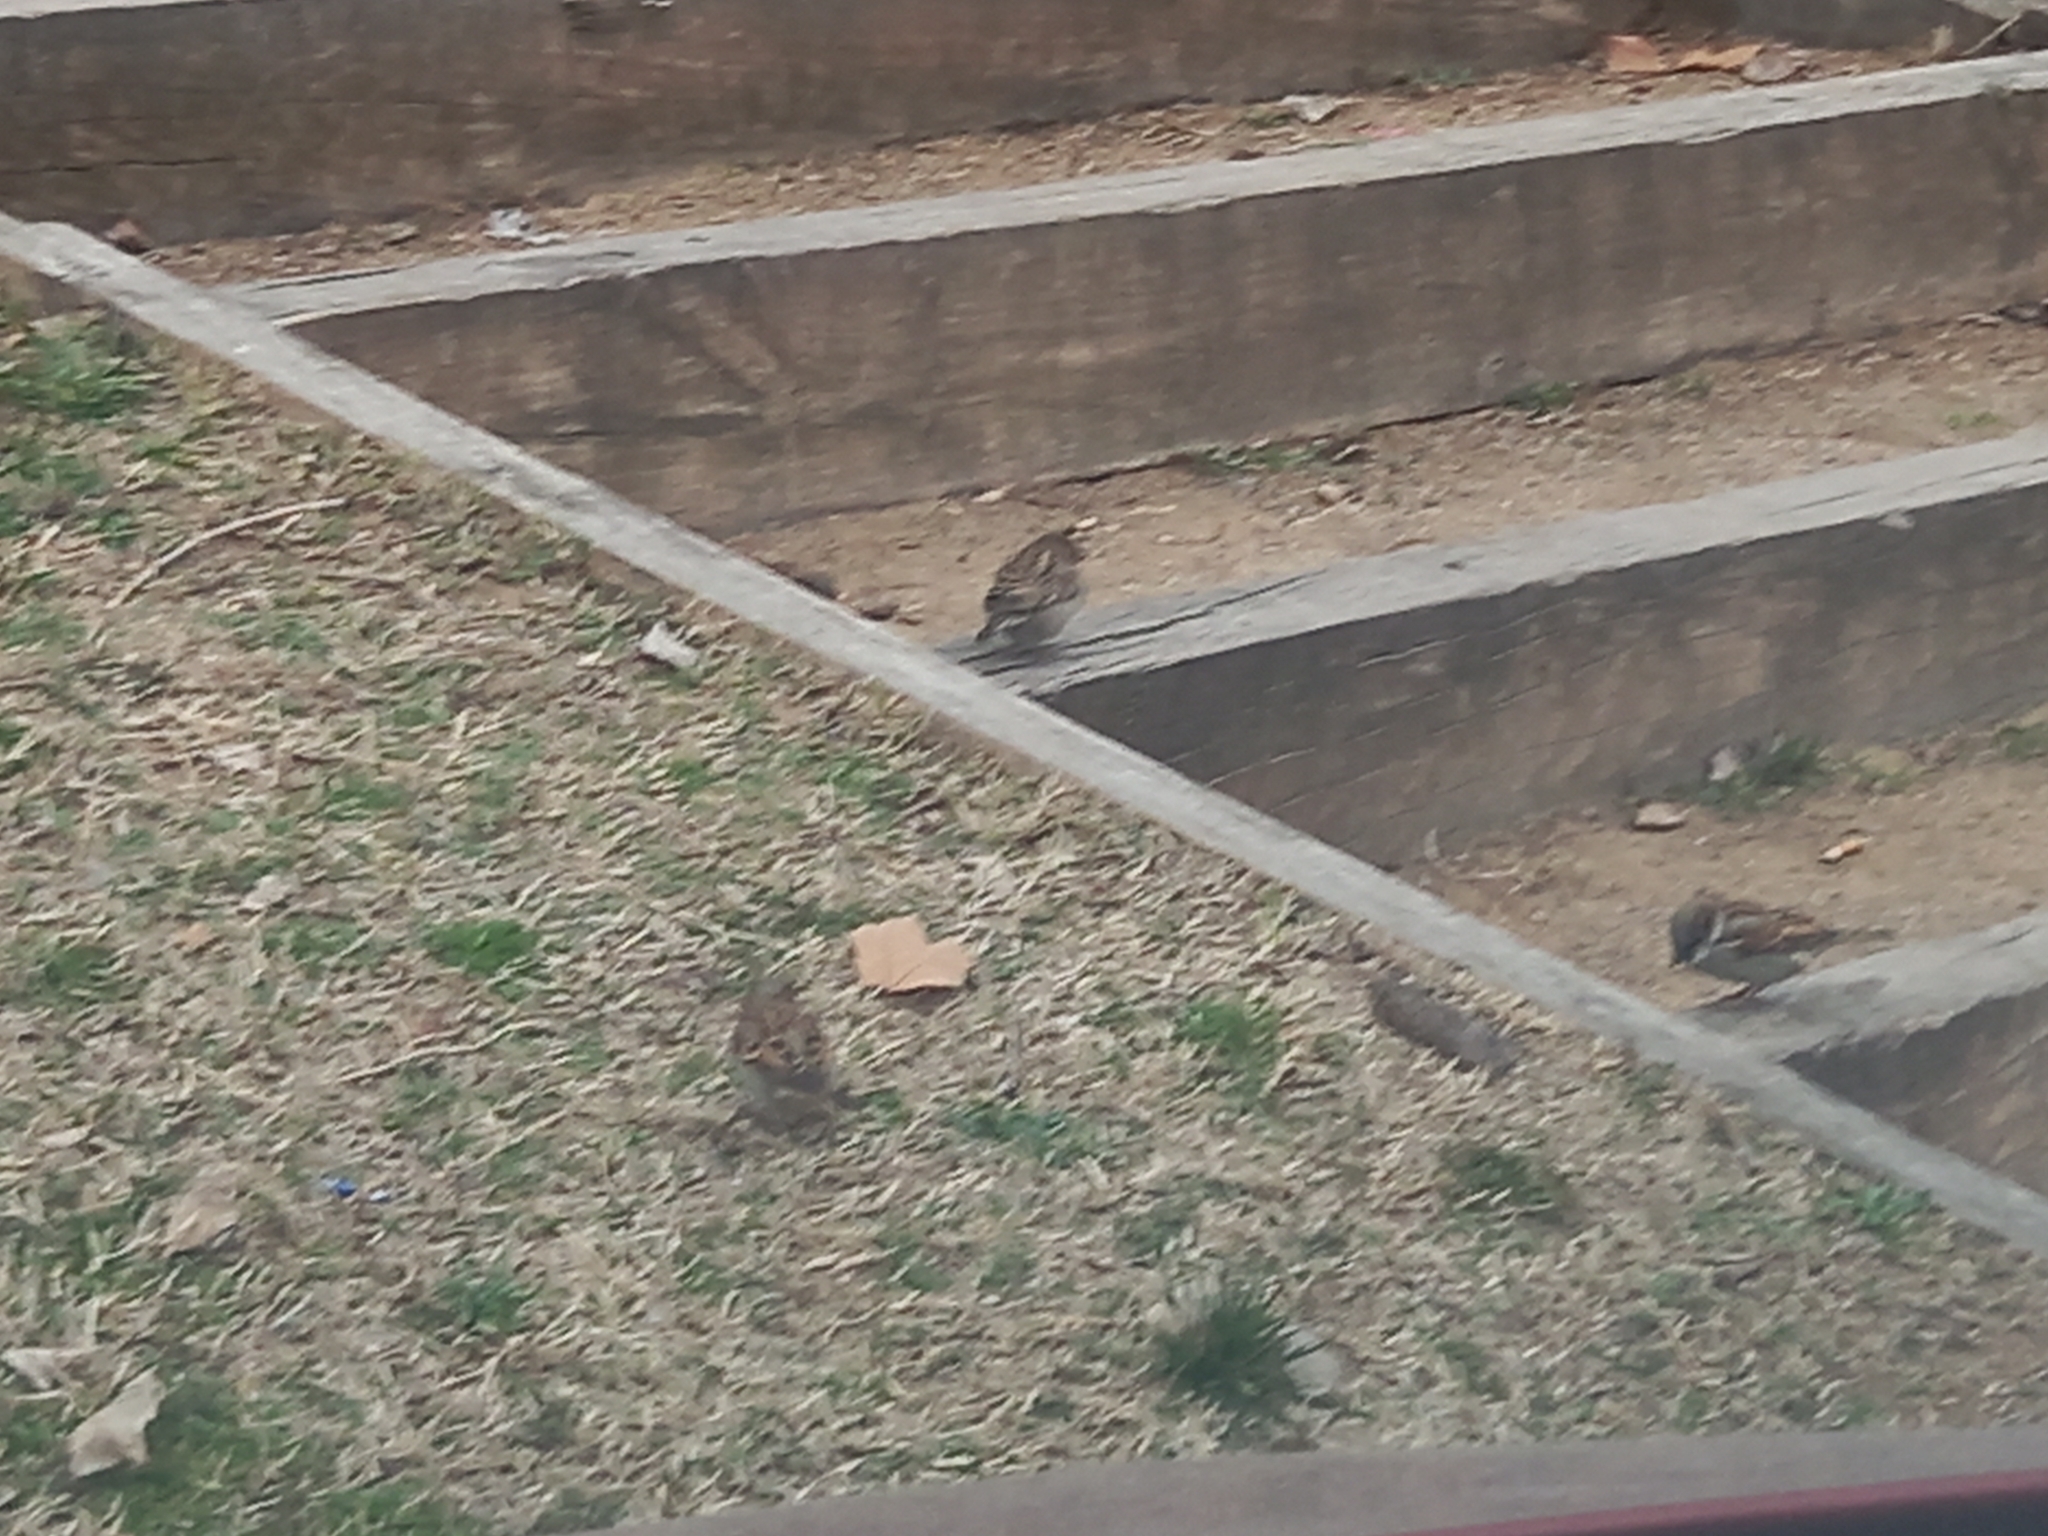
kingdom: Animalia
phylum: Chordata
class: Aves
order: Passeriformes
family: Passeridae
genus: Passer
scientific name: Passer domesticus
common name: House sparrow
